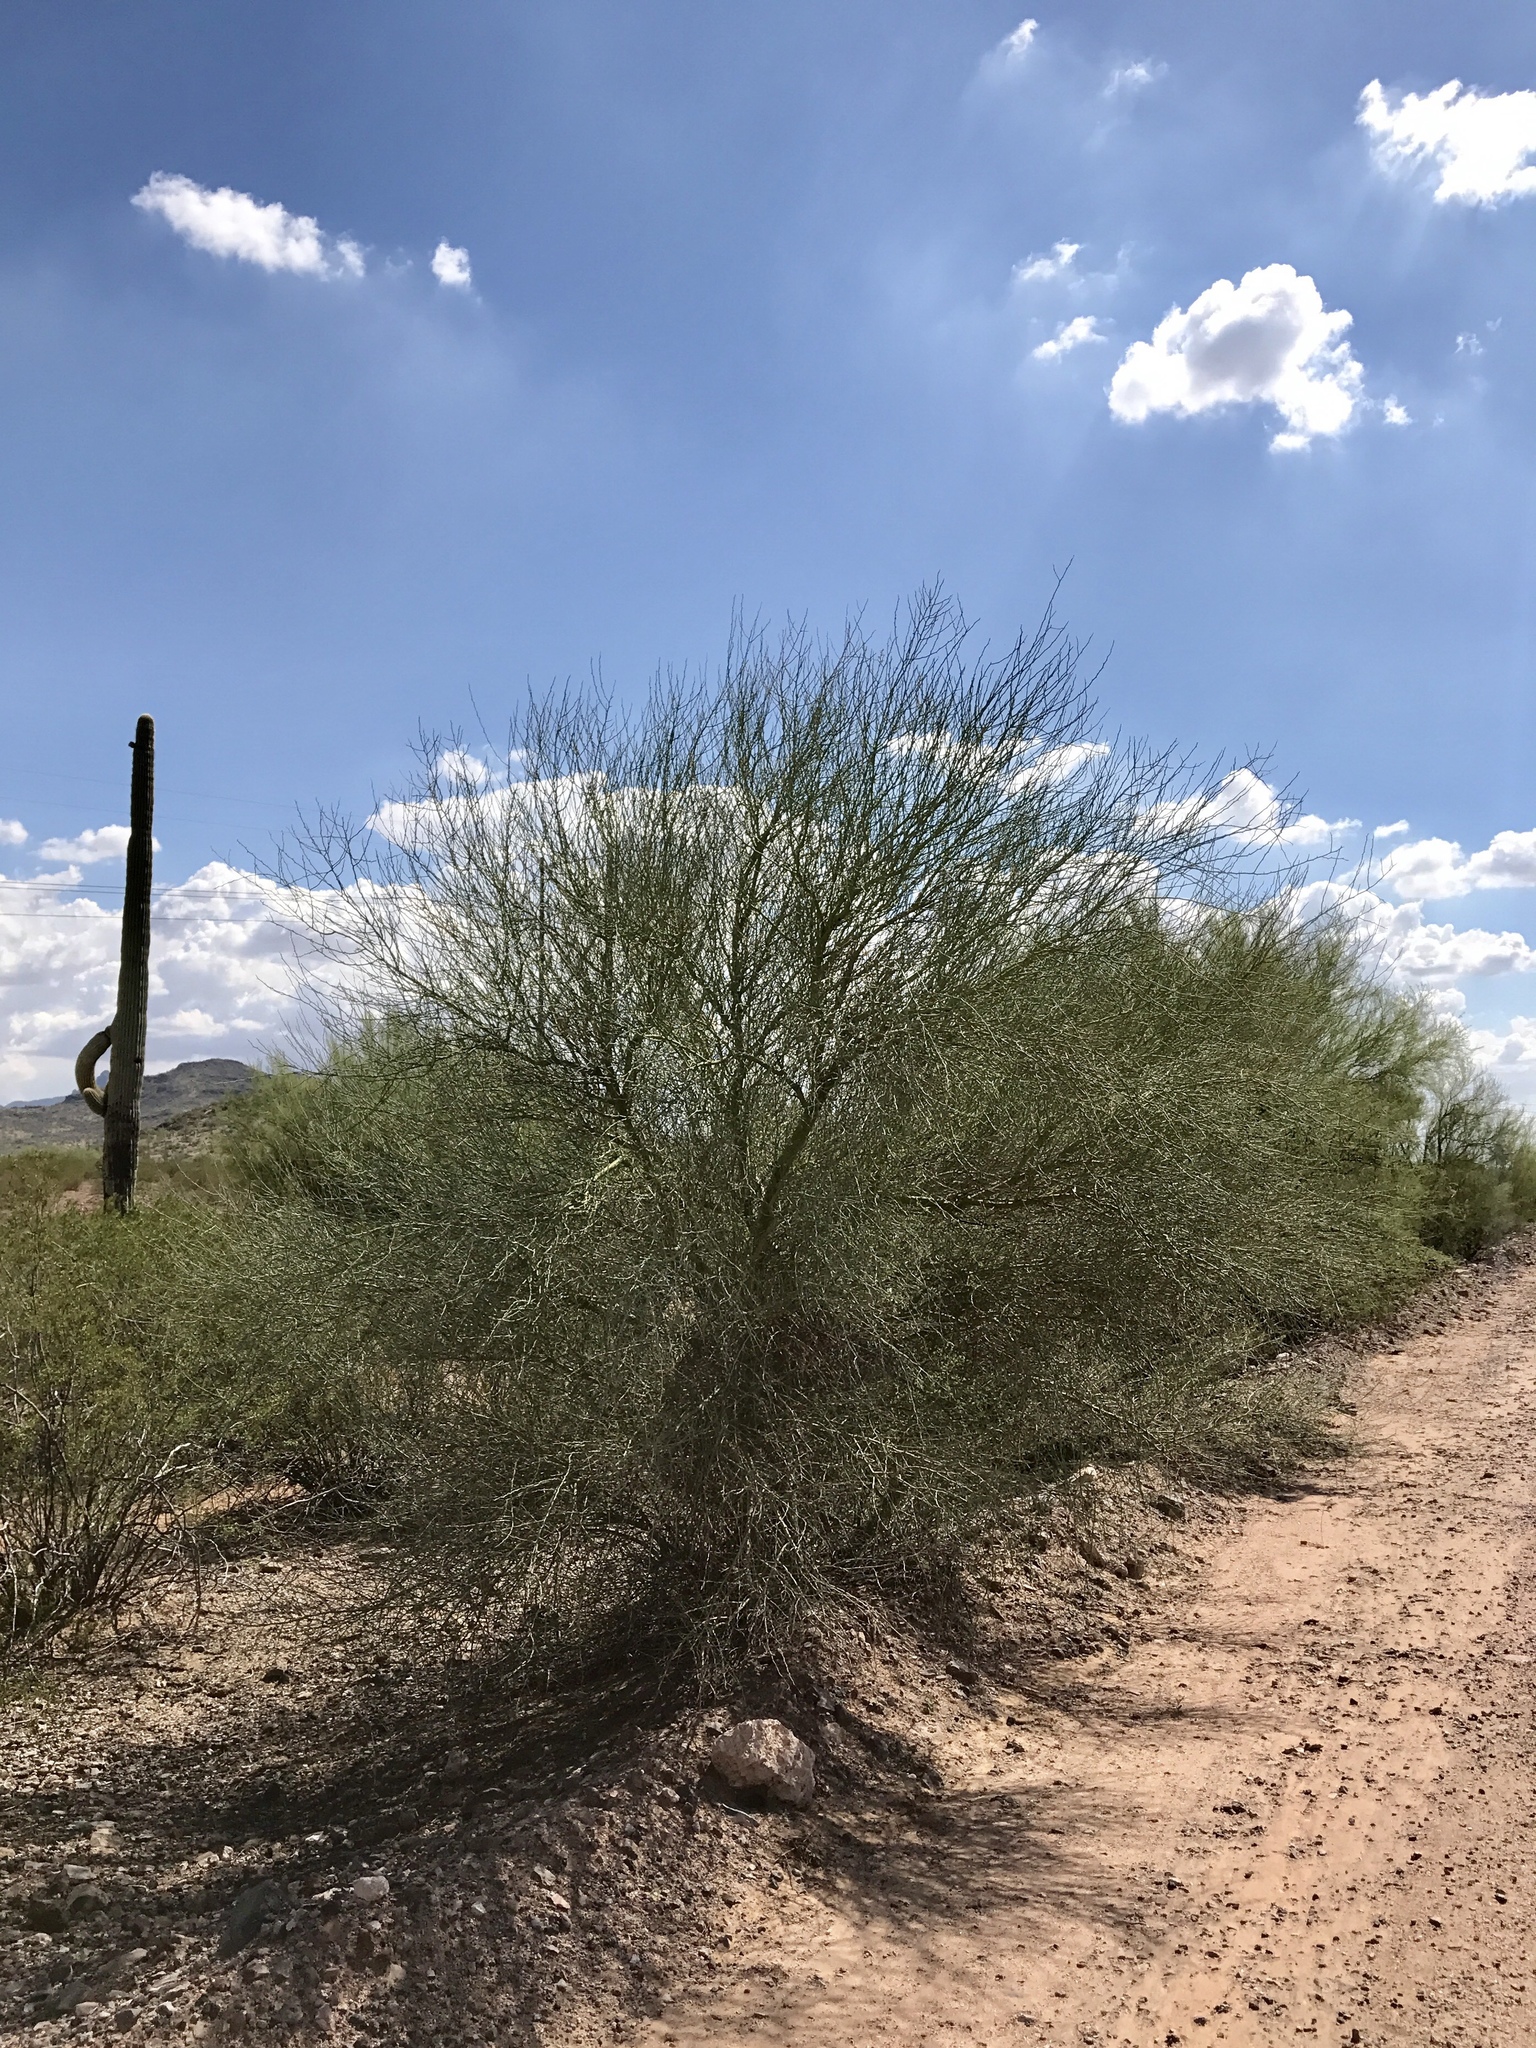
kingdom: Plantae
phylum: Tracheophyta
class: Magnoliopsida
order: Fabales
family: Fabaceae
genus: Parkinsonia
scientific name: Parkinsonia florida
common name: Blue paloverde
